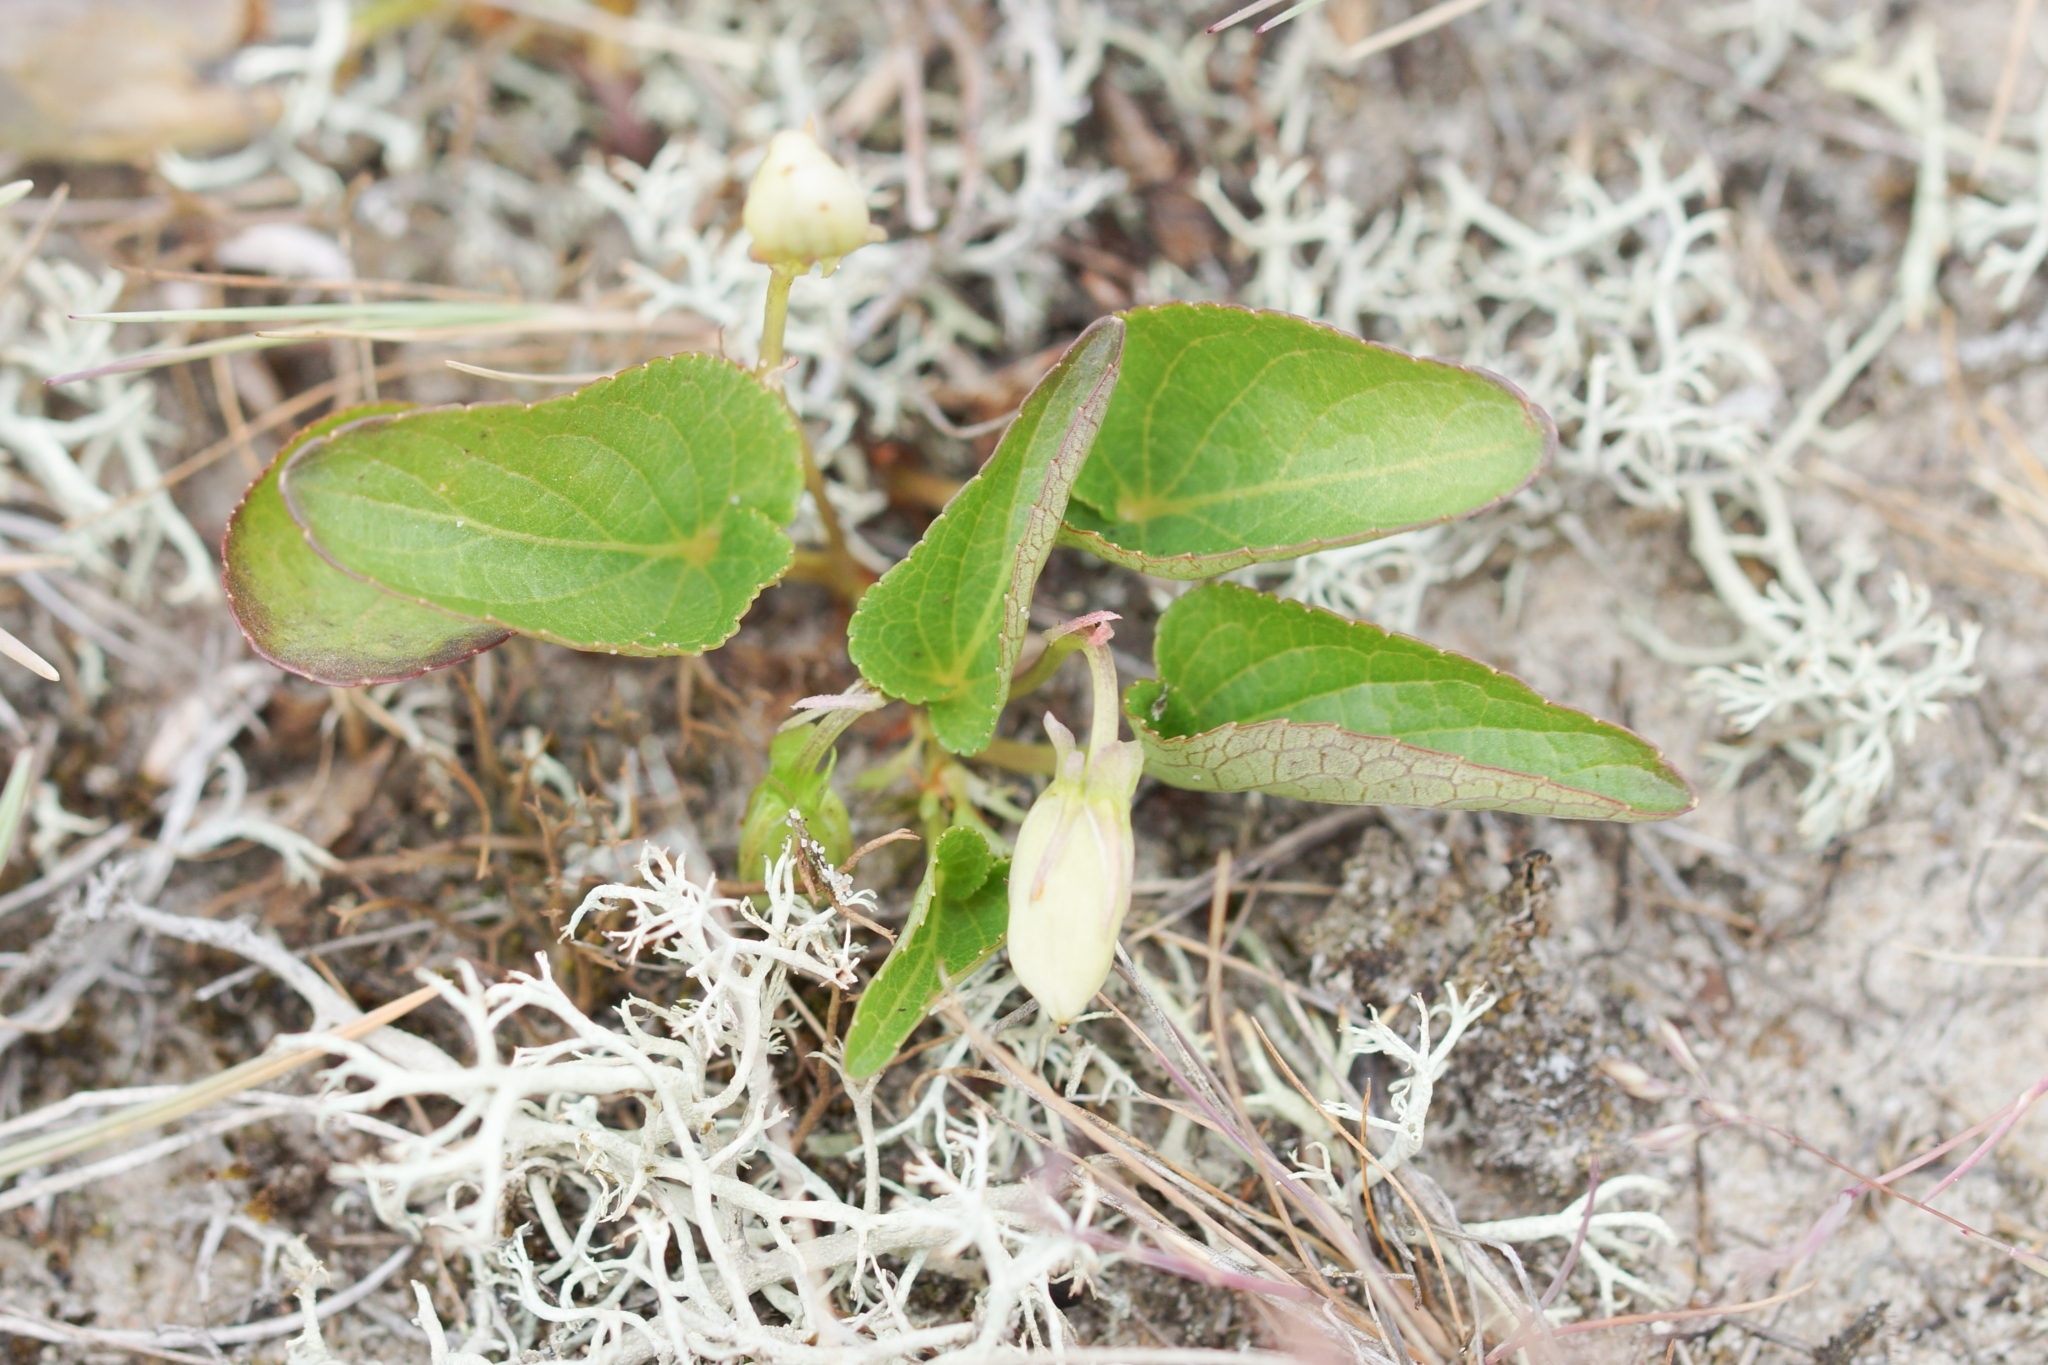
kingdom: Plantae
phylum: Tracheophyta
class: Magnoliopsida
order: Malpighiales
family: Violaceae
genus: Viola
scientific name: Viola canina
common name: Heath dog-violet
